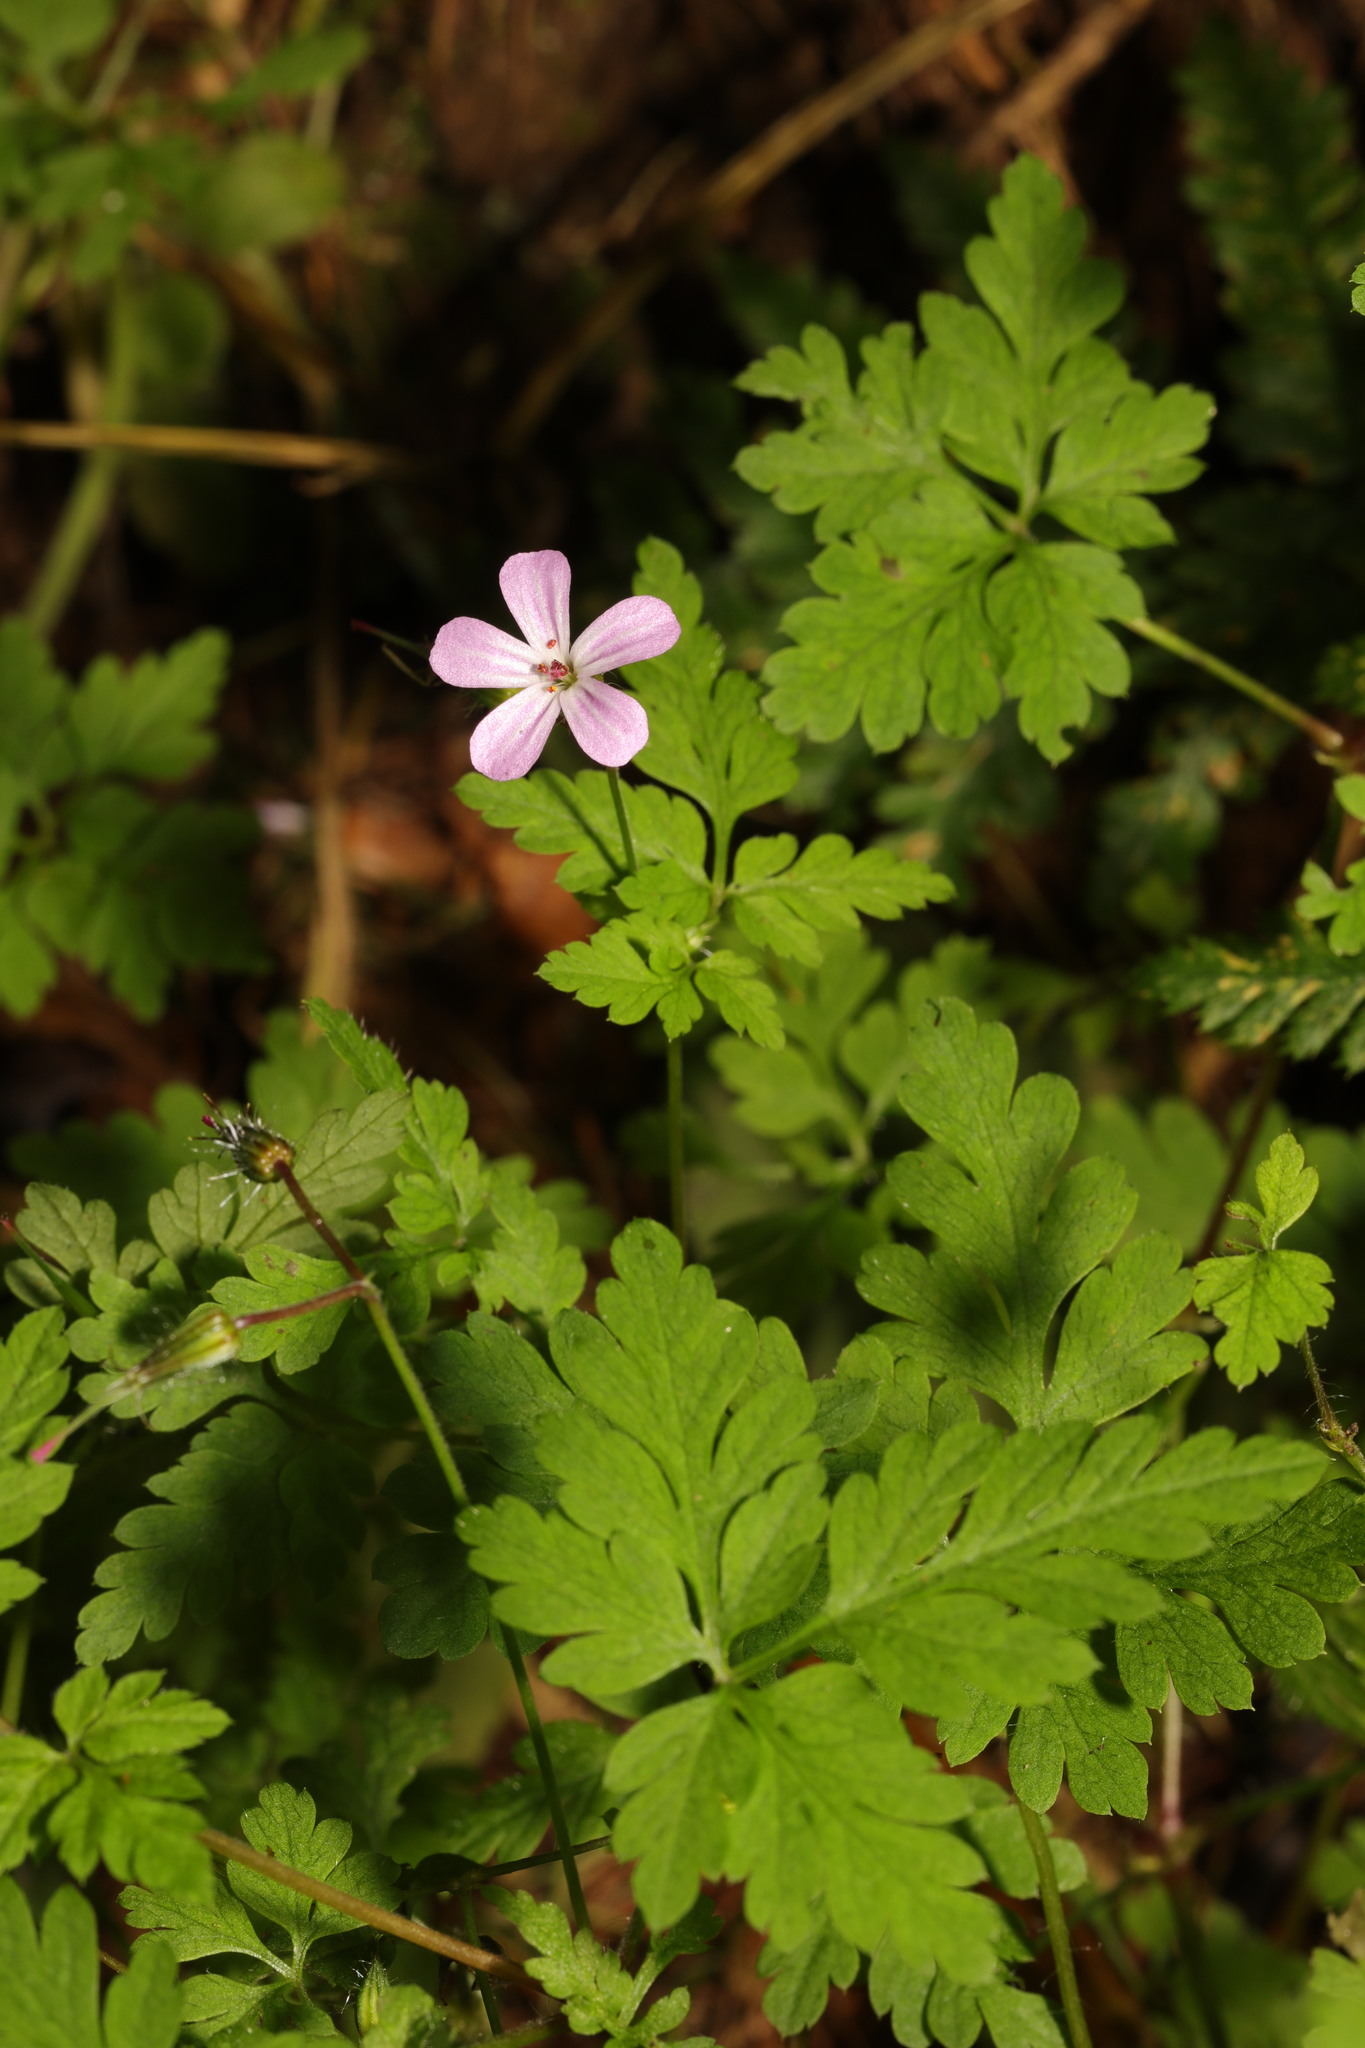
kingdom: Plantae
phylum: Tracheophyta
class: Magnoliopsida
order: Geraniales
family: Geraniaceae
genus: Geranium
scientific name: Geranium robertianum
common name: Herb-robert
